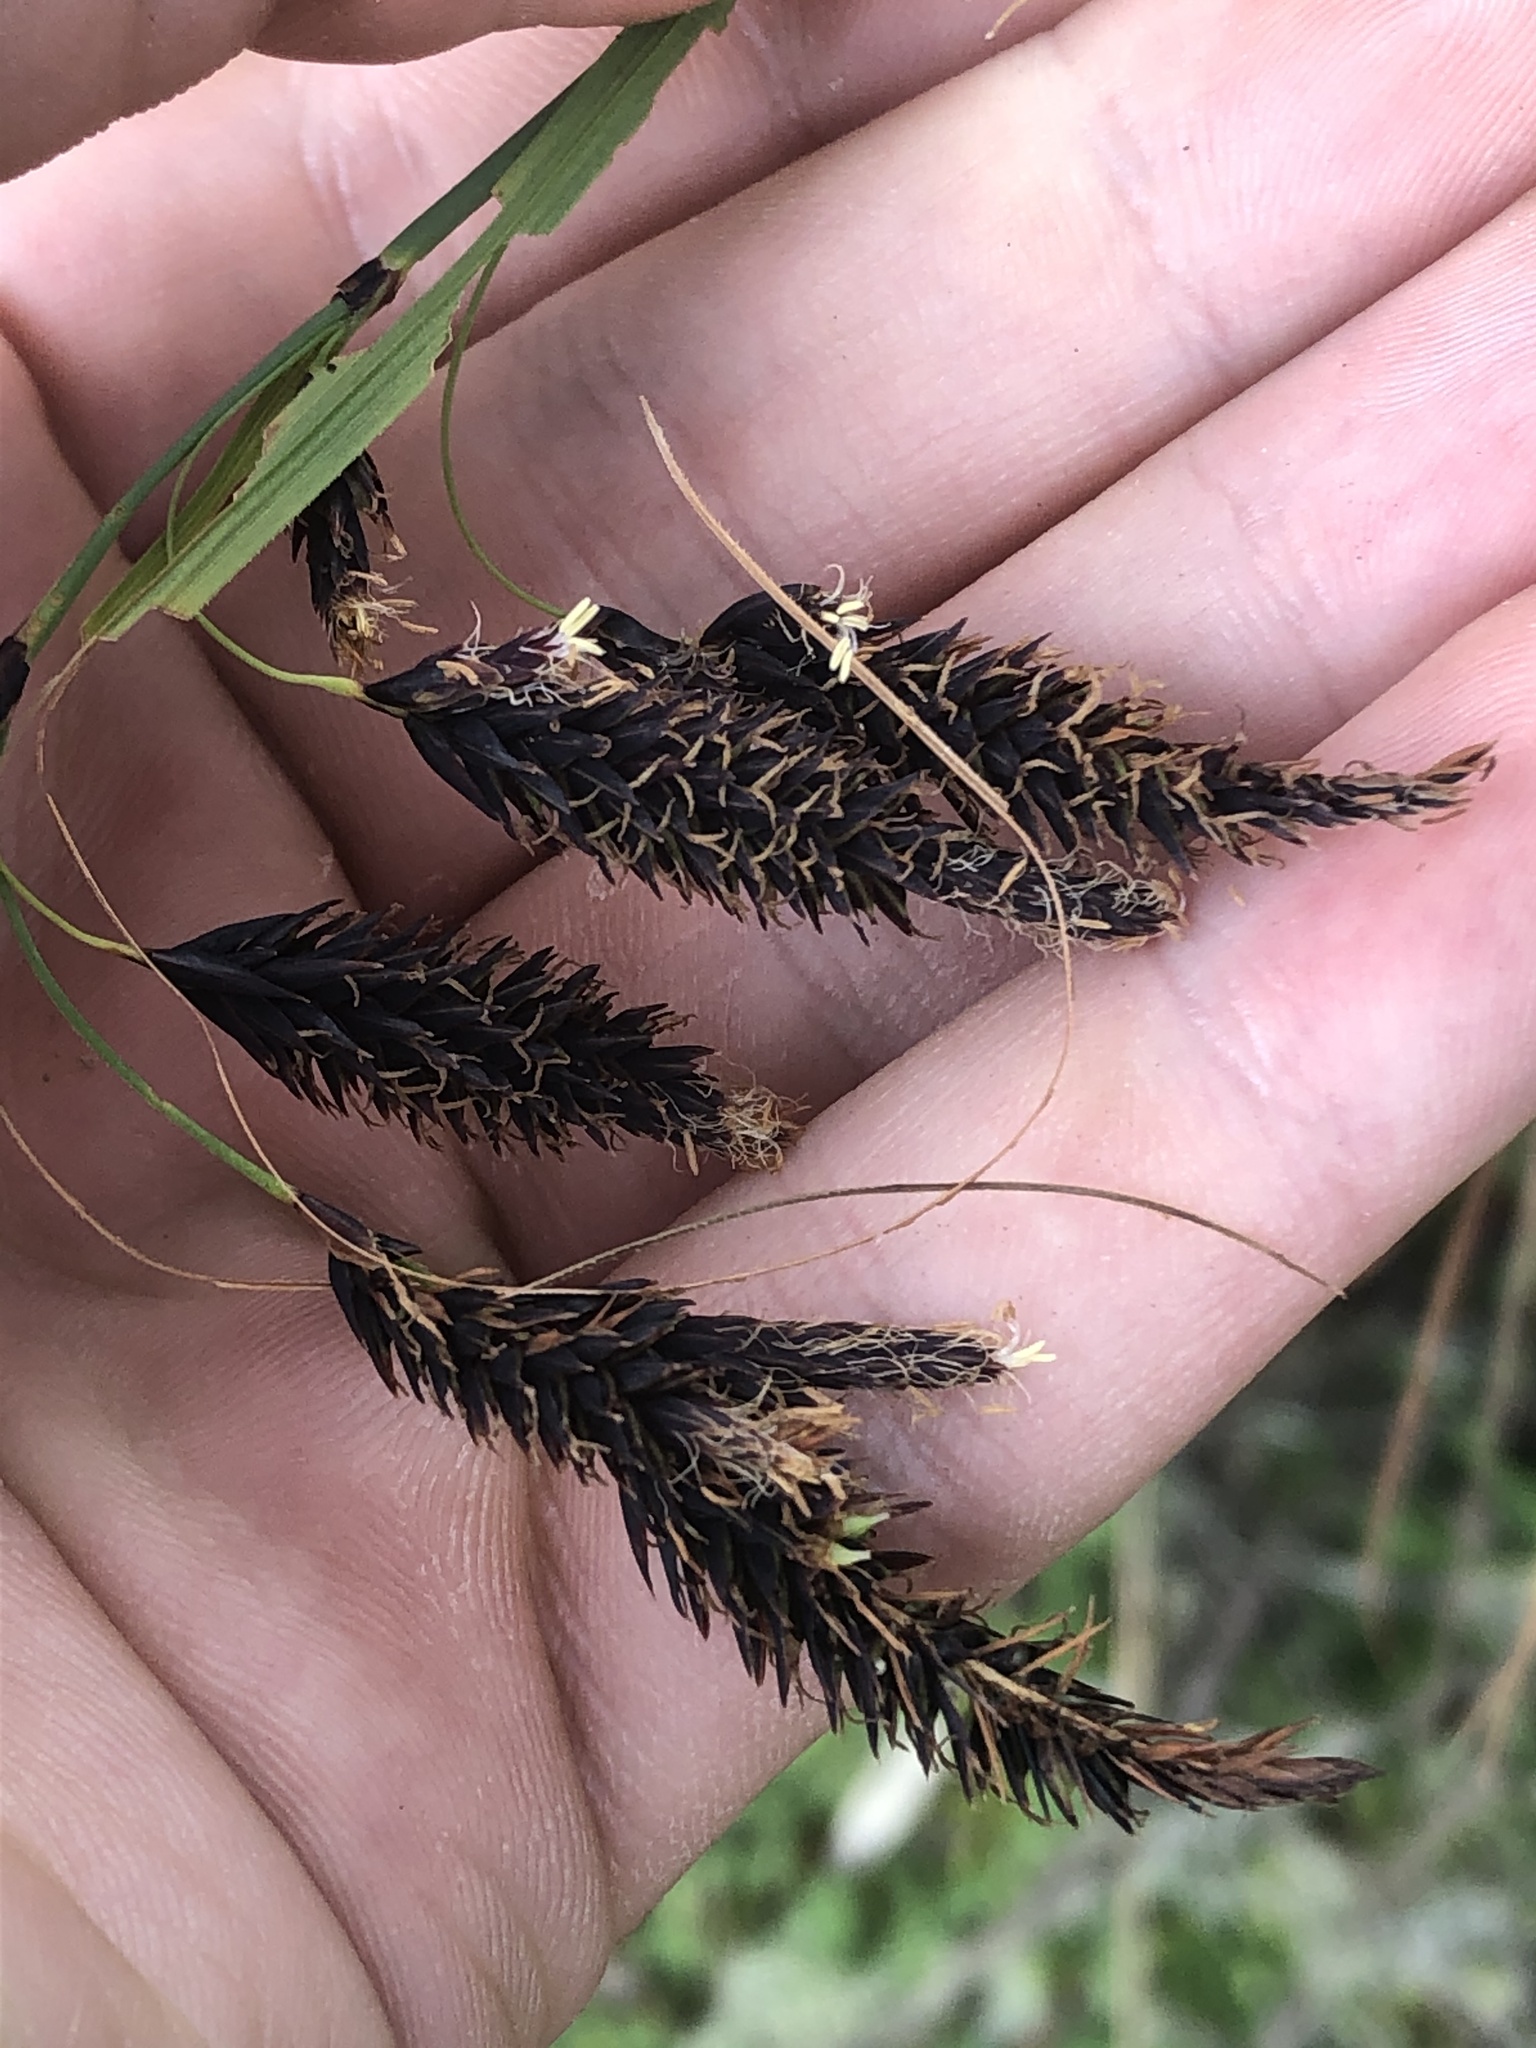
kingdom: Plantae
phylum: Tracheophyta
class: Liliopsida
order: Poales
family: Cyperaceae
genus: Carex
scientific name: Carex pichinchensis
